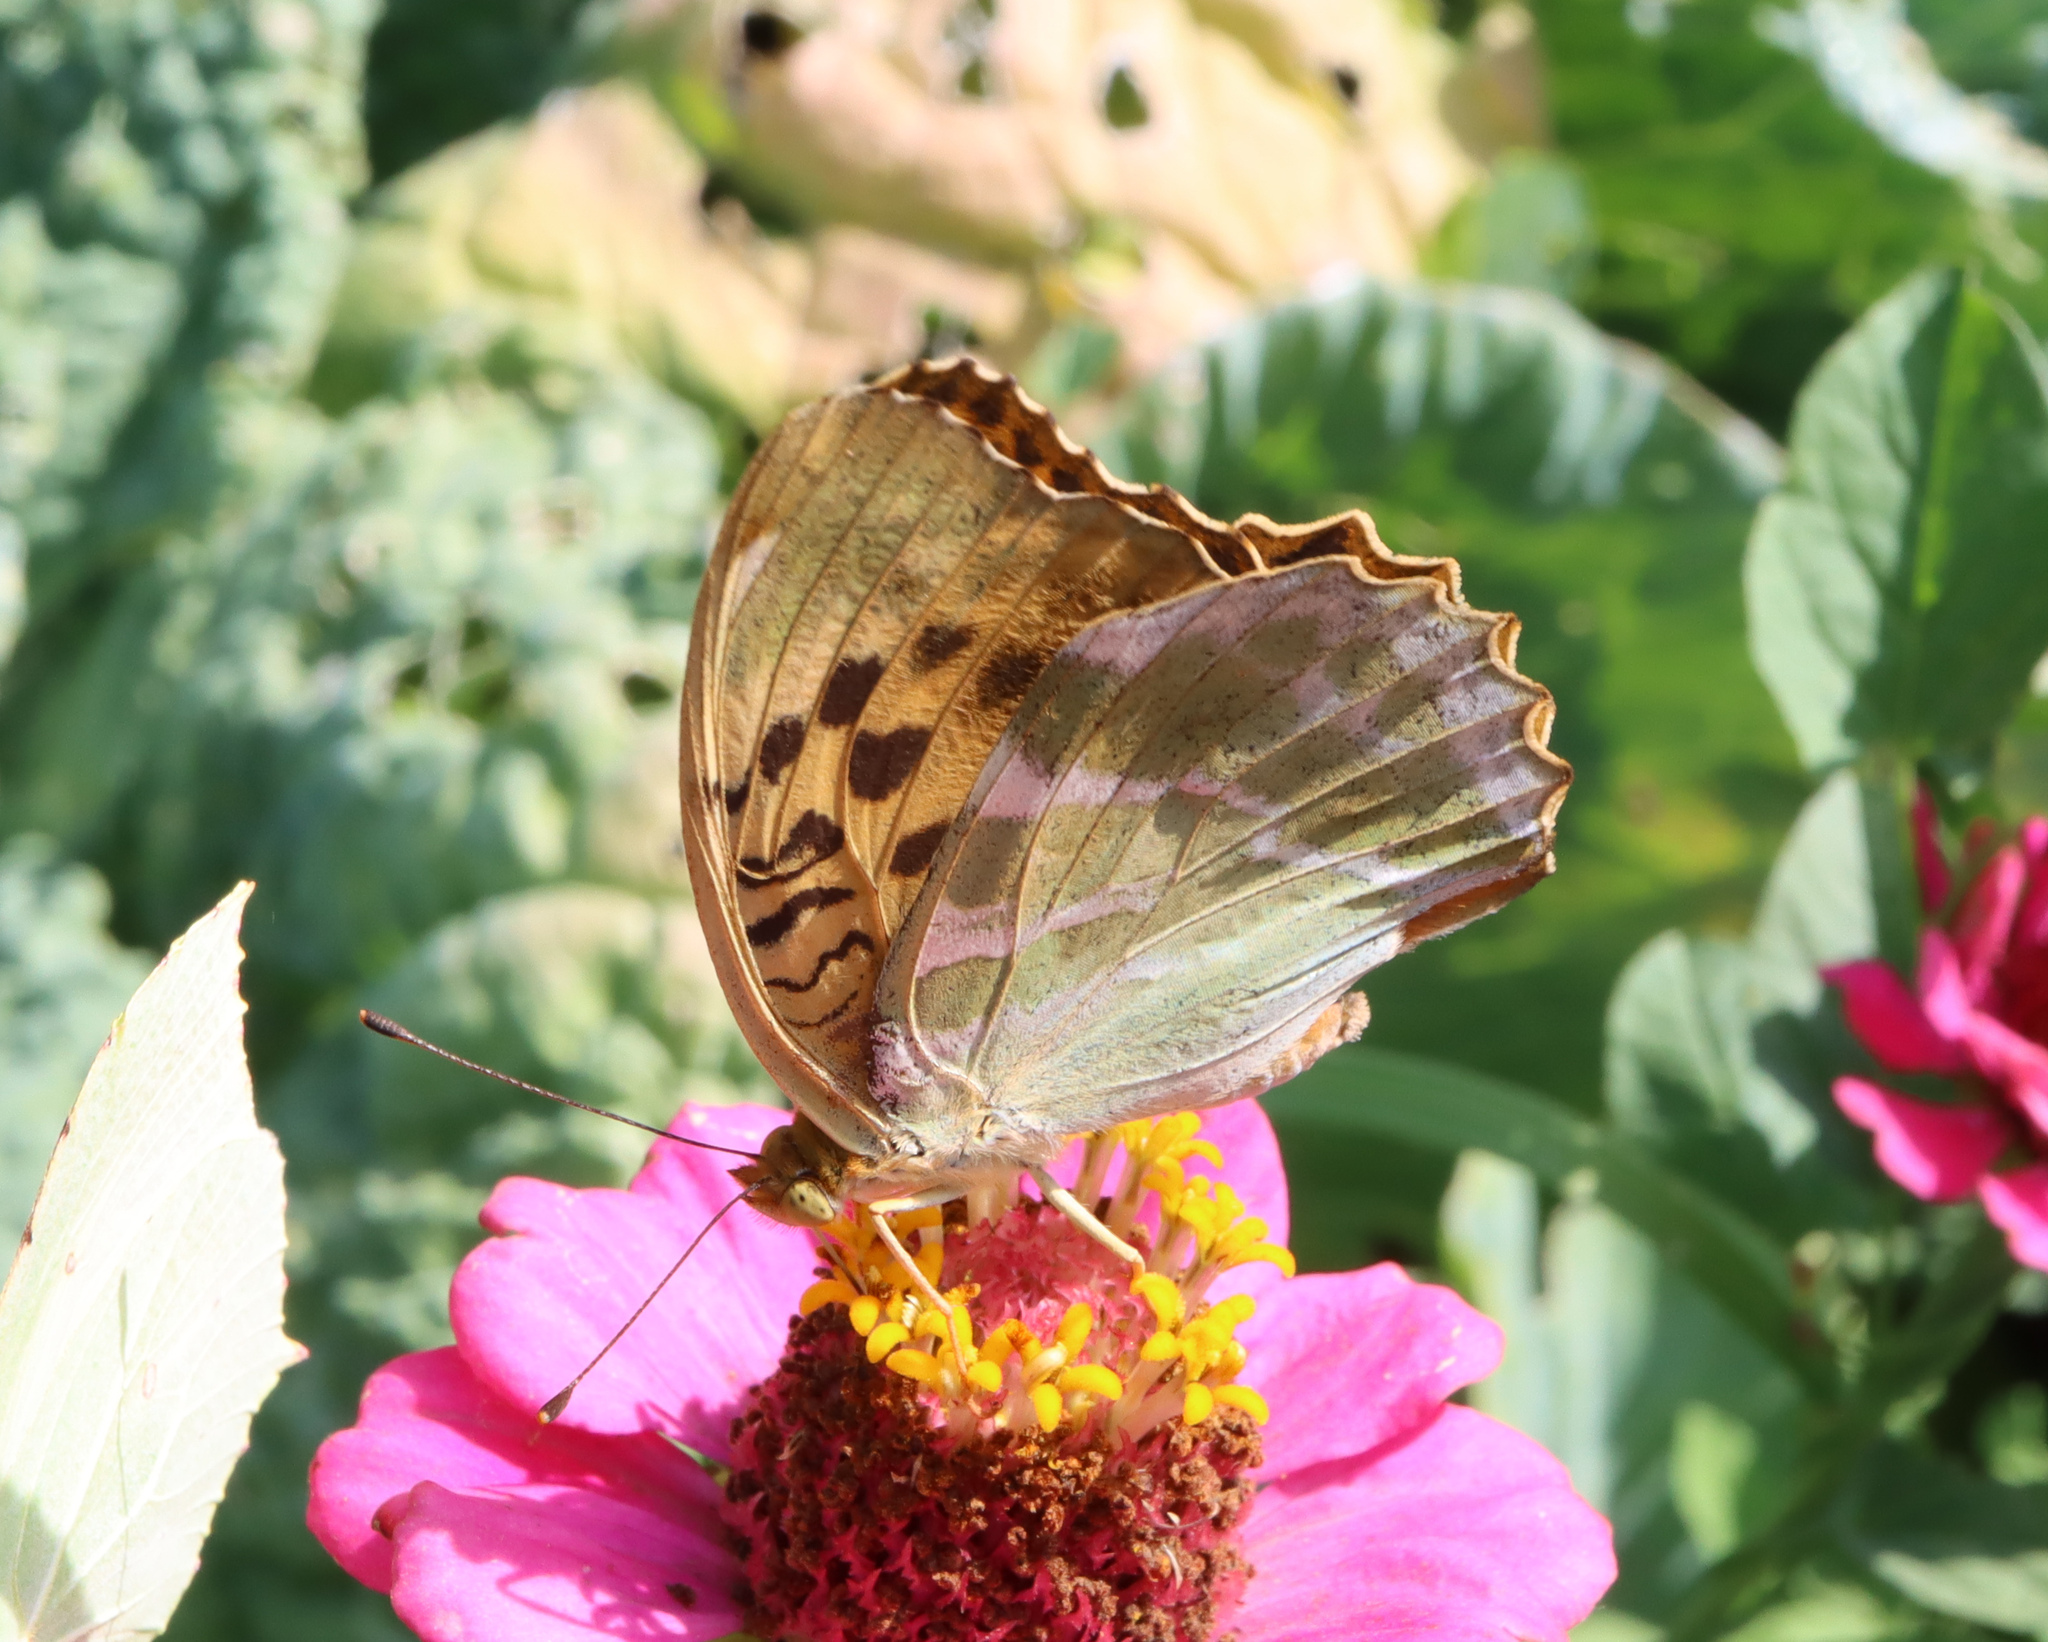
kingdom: Animalia
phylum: Arthropoda
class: Insecta
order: Lepidoptera
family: Nymphalidae
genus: Argynnis
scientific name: Argynnis paphia
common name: Silver-washed fritillary
